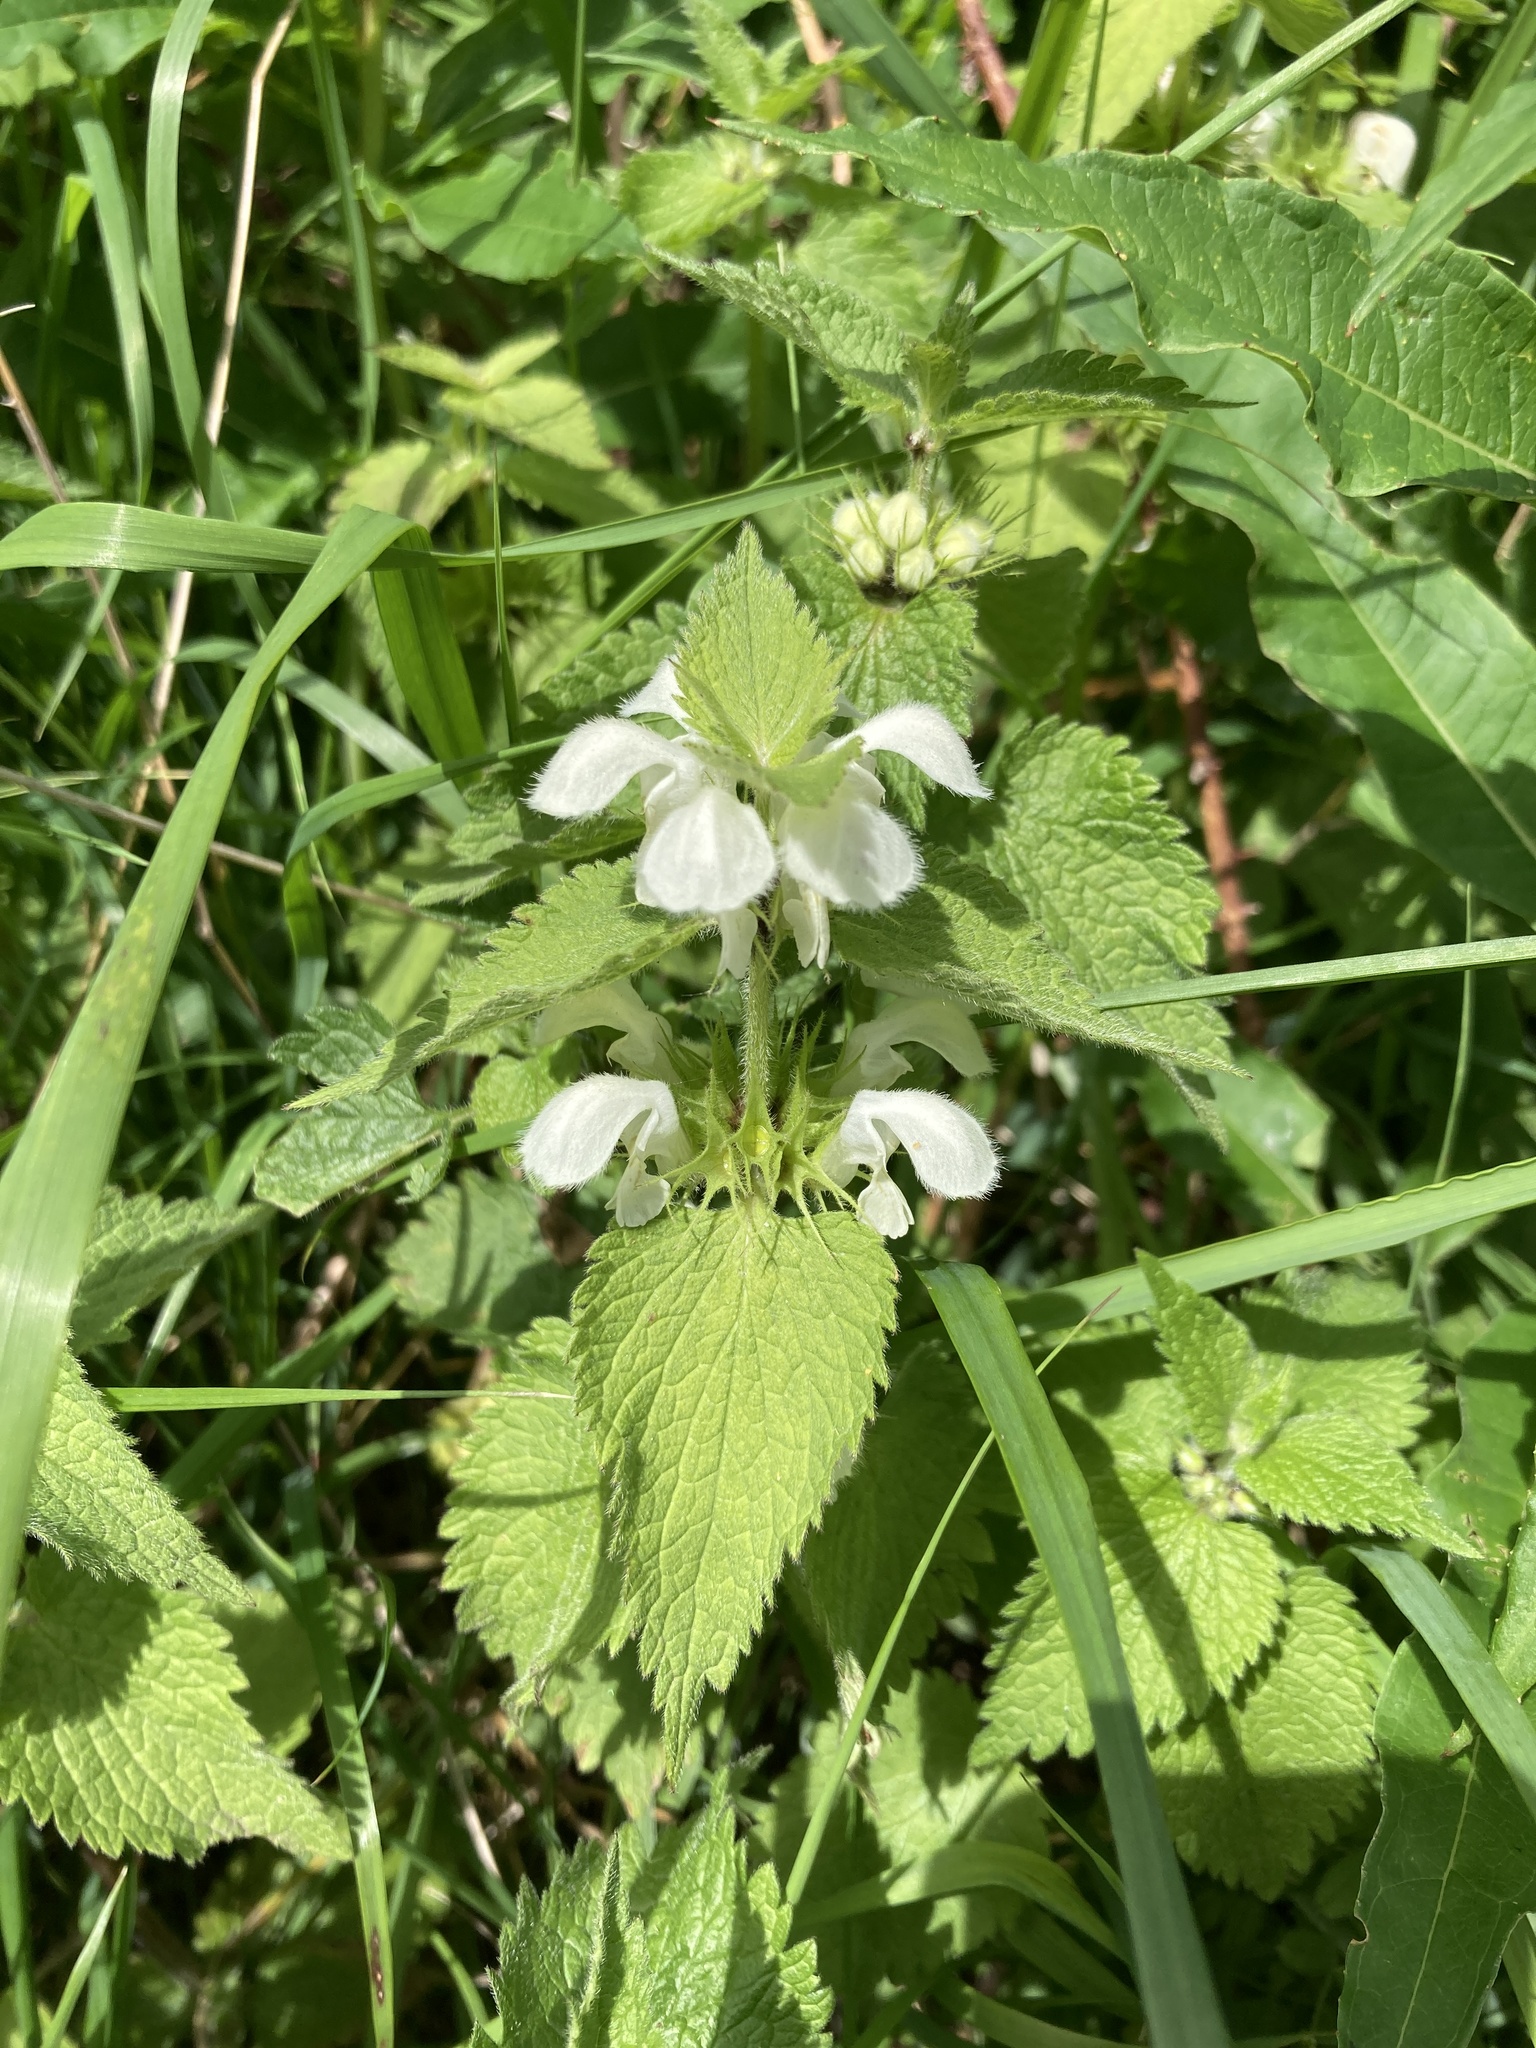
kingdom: Plantae
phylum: Tracheophyta
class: Magnoliopsida
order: Lamiales
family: Lamiaceae
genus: Lamium
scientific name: Lamium album
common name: White dead-nettle
